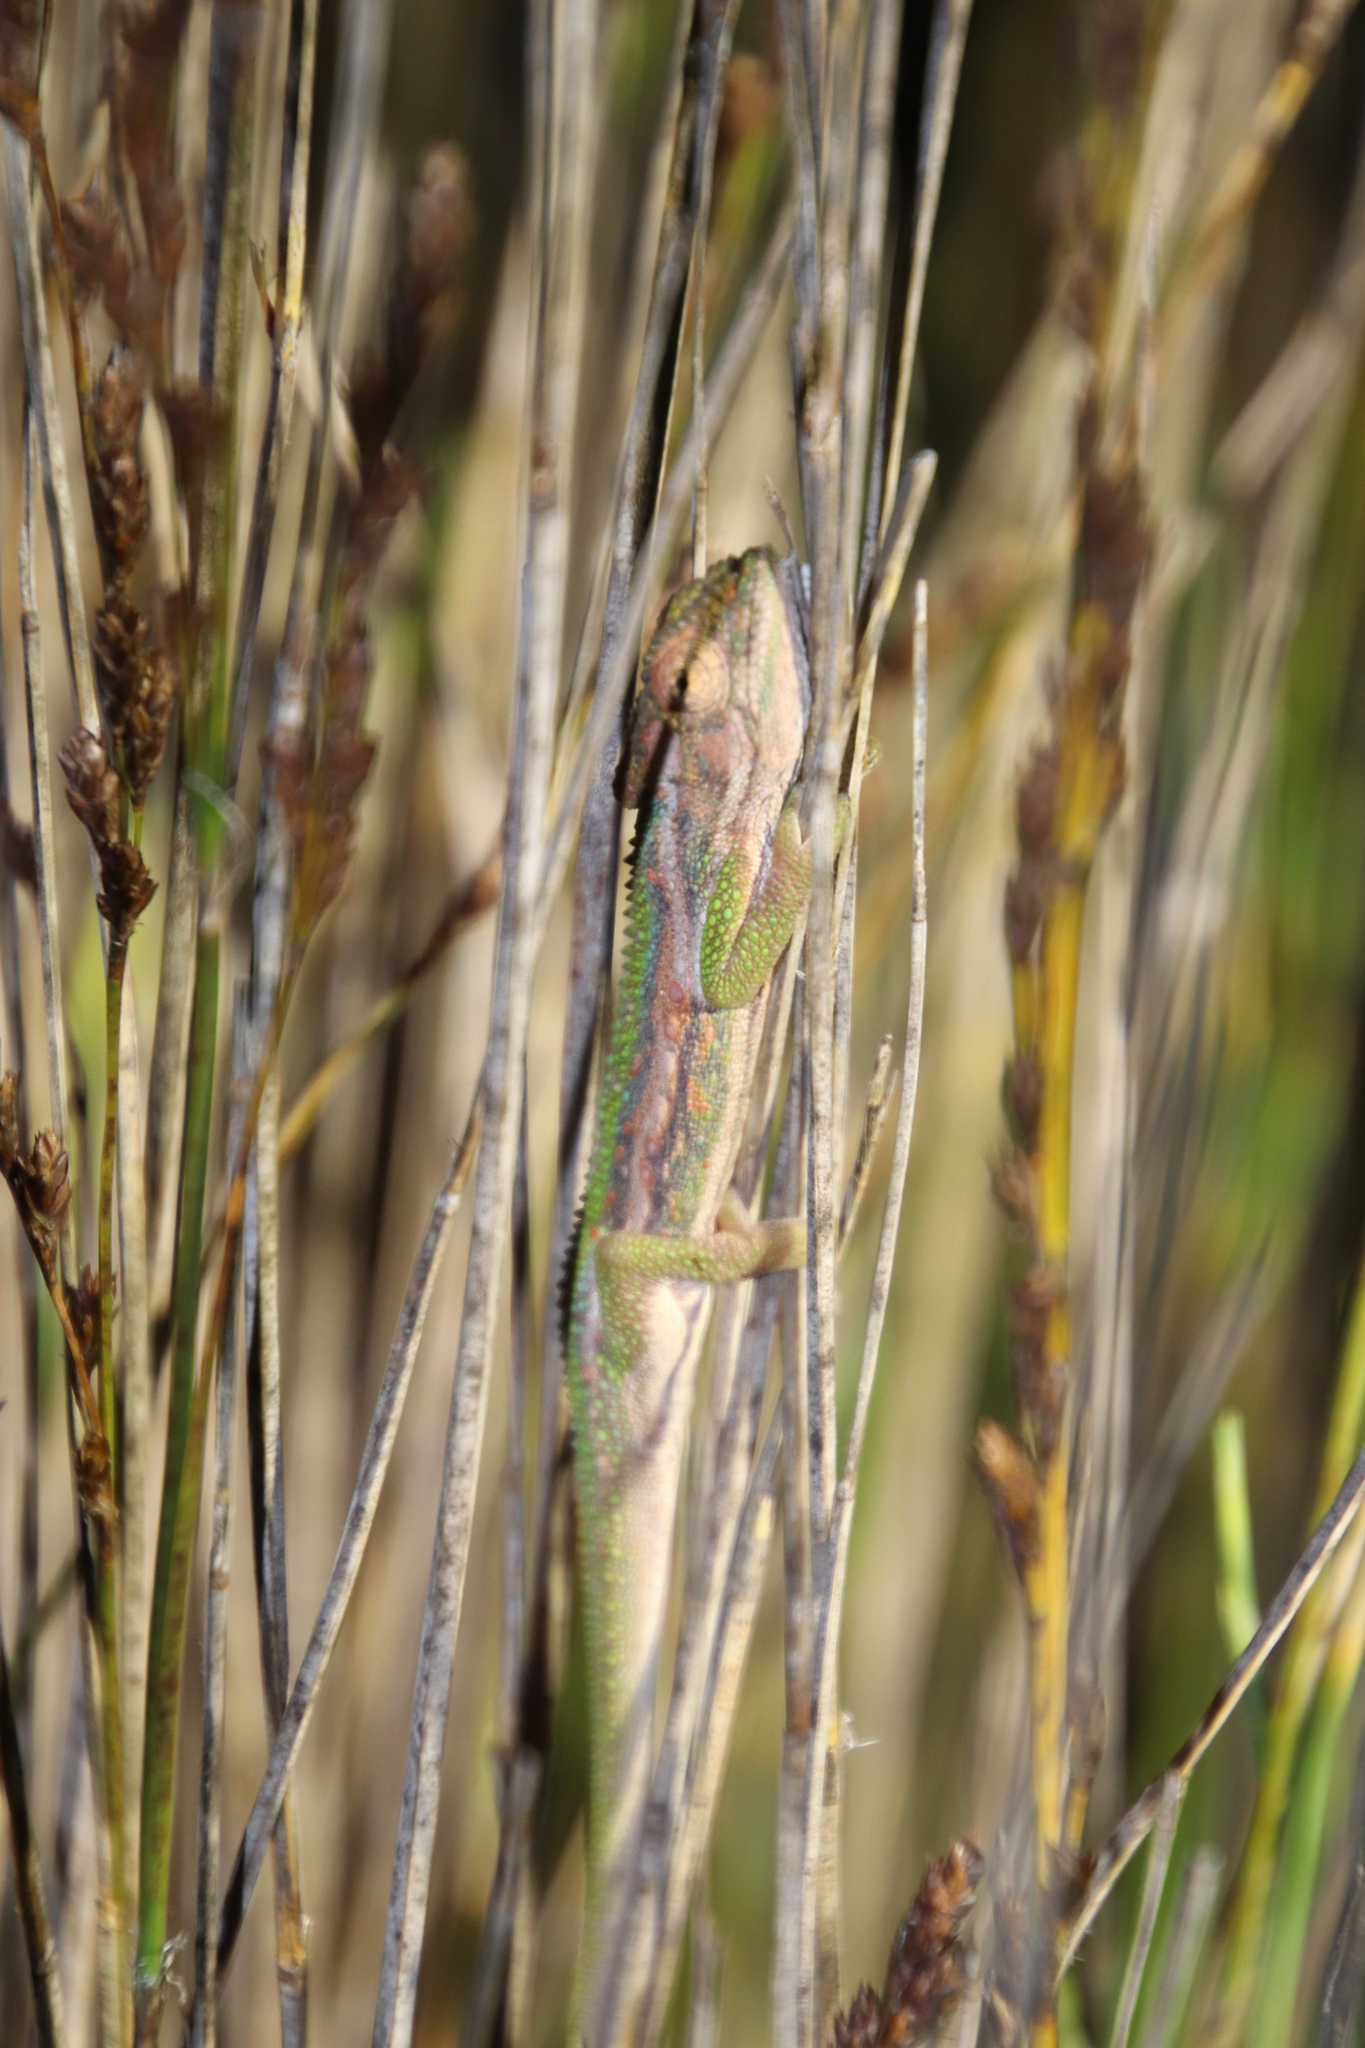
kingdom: Animalia
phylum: Chordata
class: Squamata
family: Chamaeleonidae
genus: Bradypodion
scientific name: Bradypodion pumilum
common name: Cape dwarf chameleon
